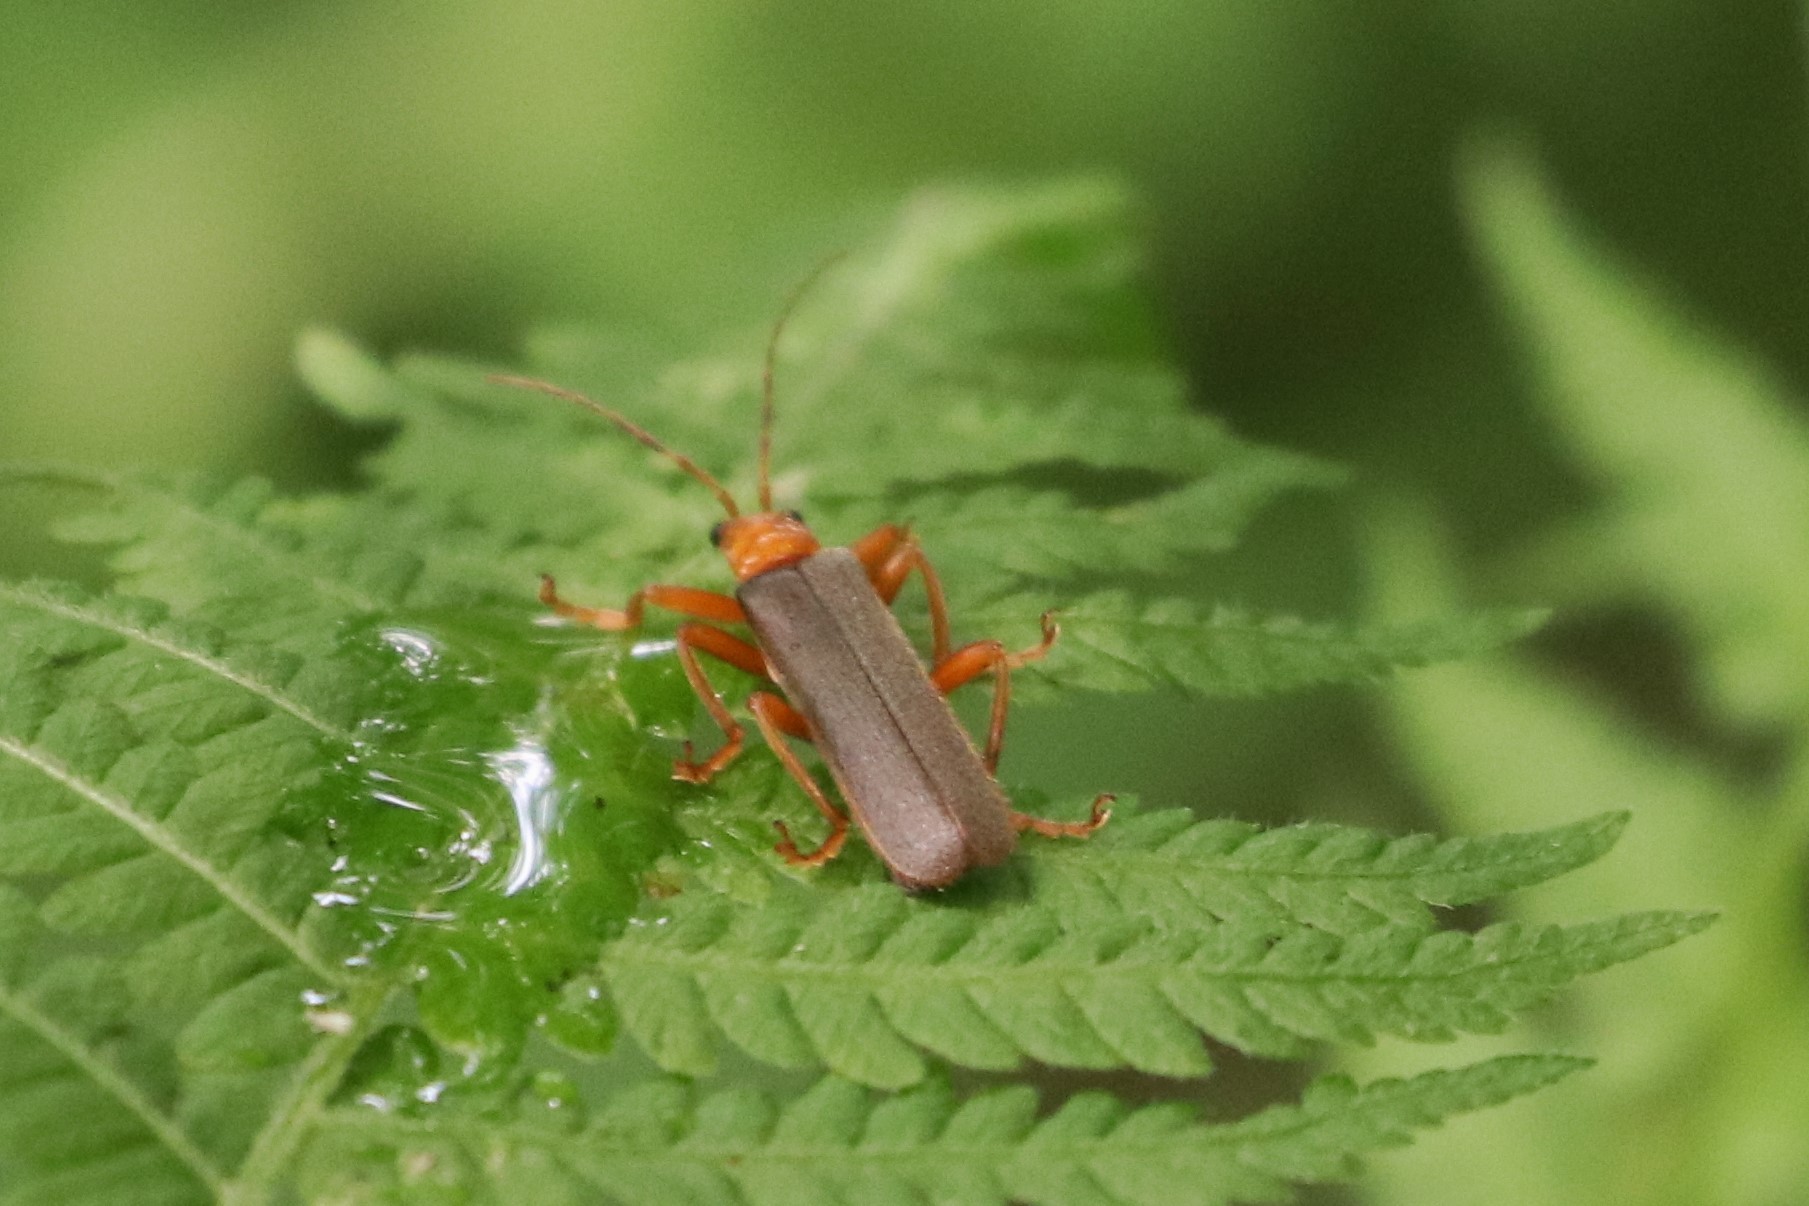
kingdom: Animalia
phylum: Arthropoda
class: Insecta
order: Coleoptera
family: Cantharidae
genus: Pacificanthia
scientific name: Pacificanthia rotundicollis
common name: Brown leatherwing beetle
